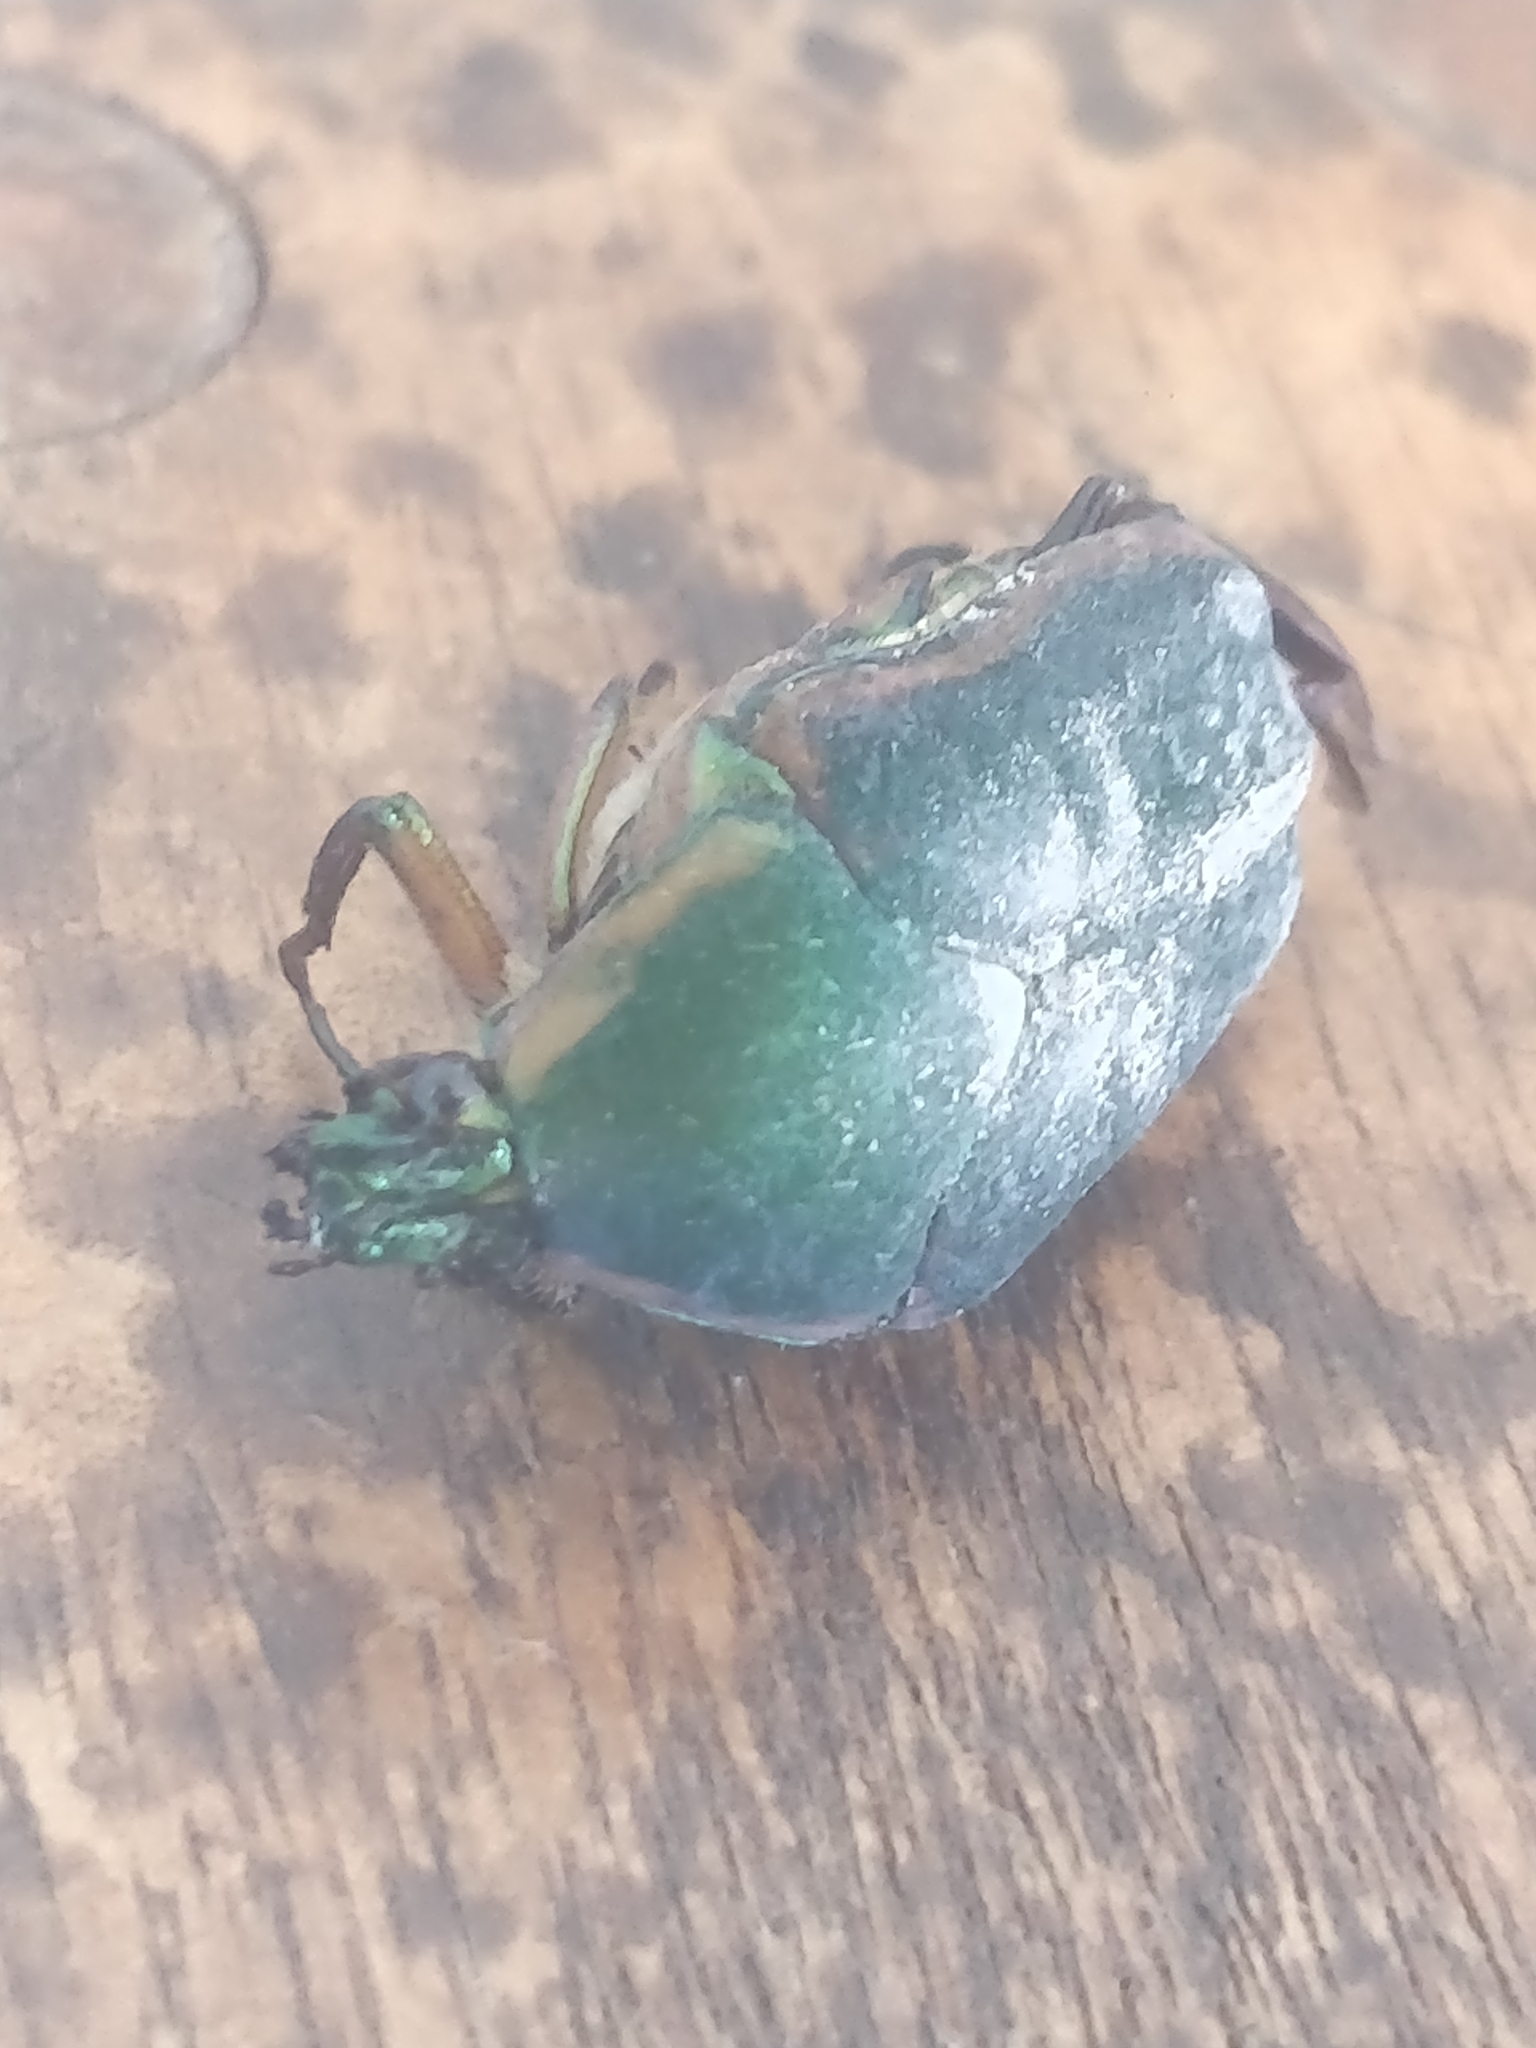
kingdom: Animalia
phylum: Arthropoda
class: Insecta
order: Coleoptera
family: Scarabaeidae
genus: Cotinis
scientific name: Cotinis nitida
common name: Common green june beetle
